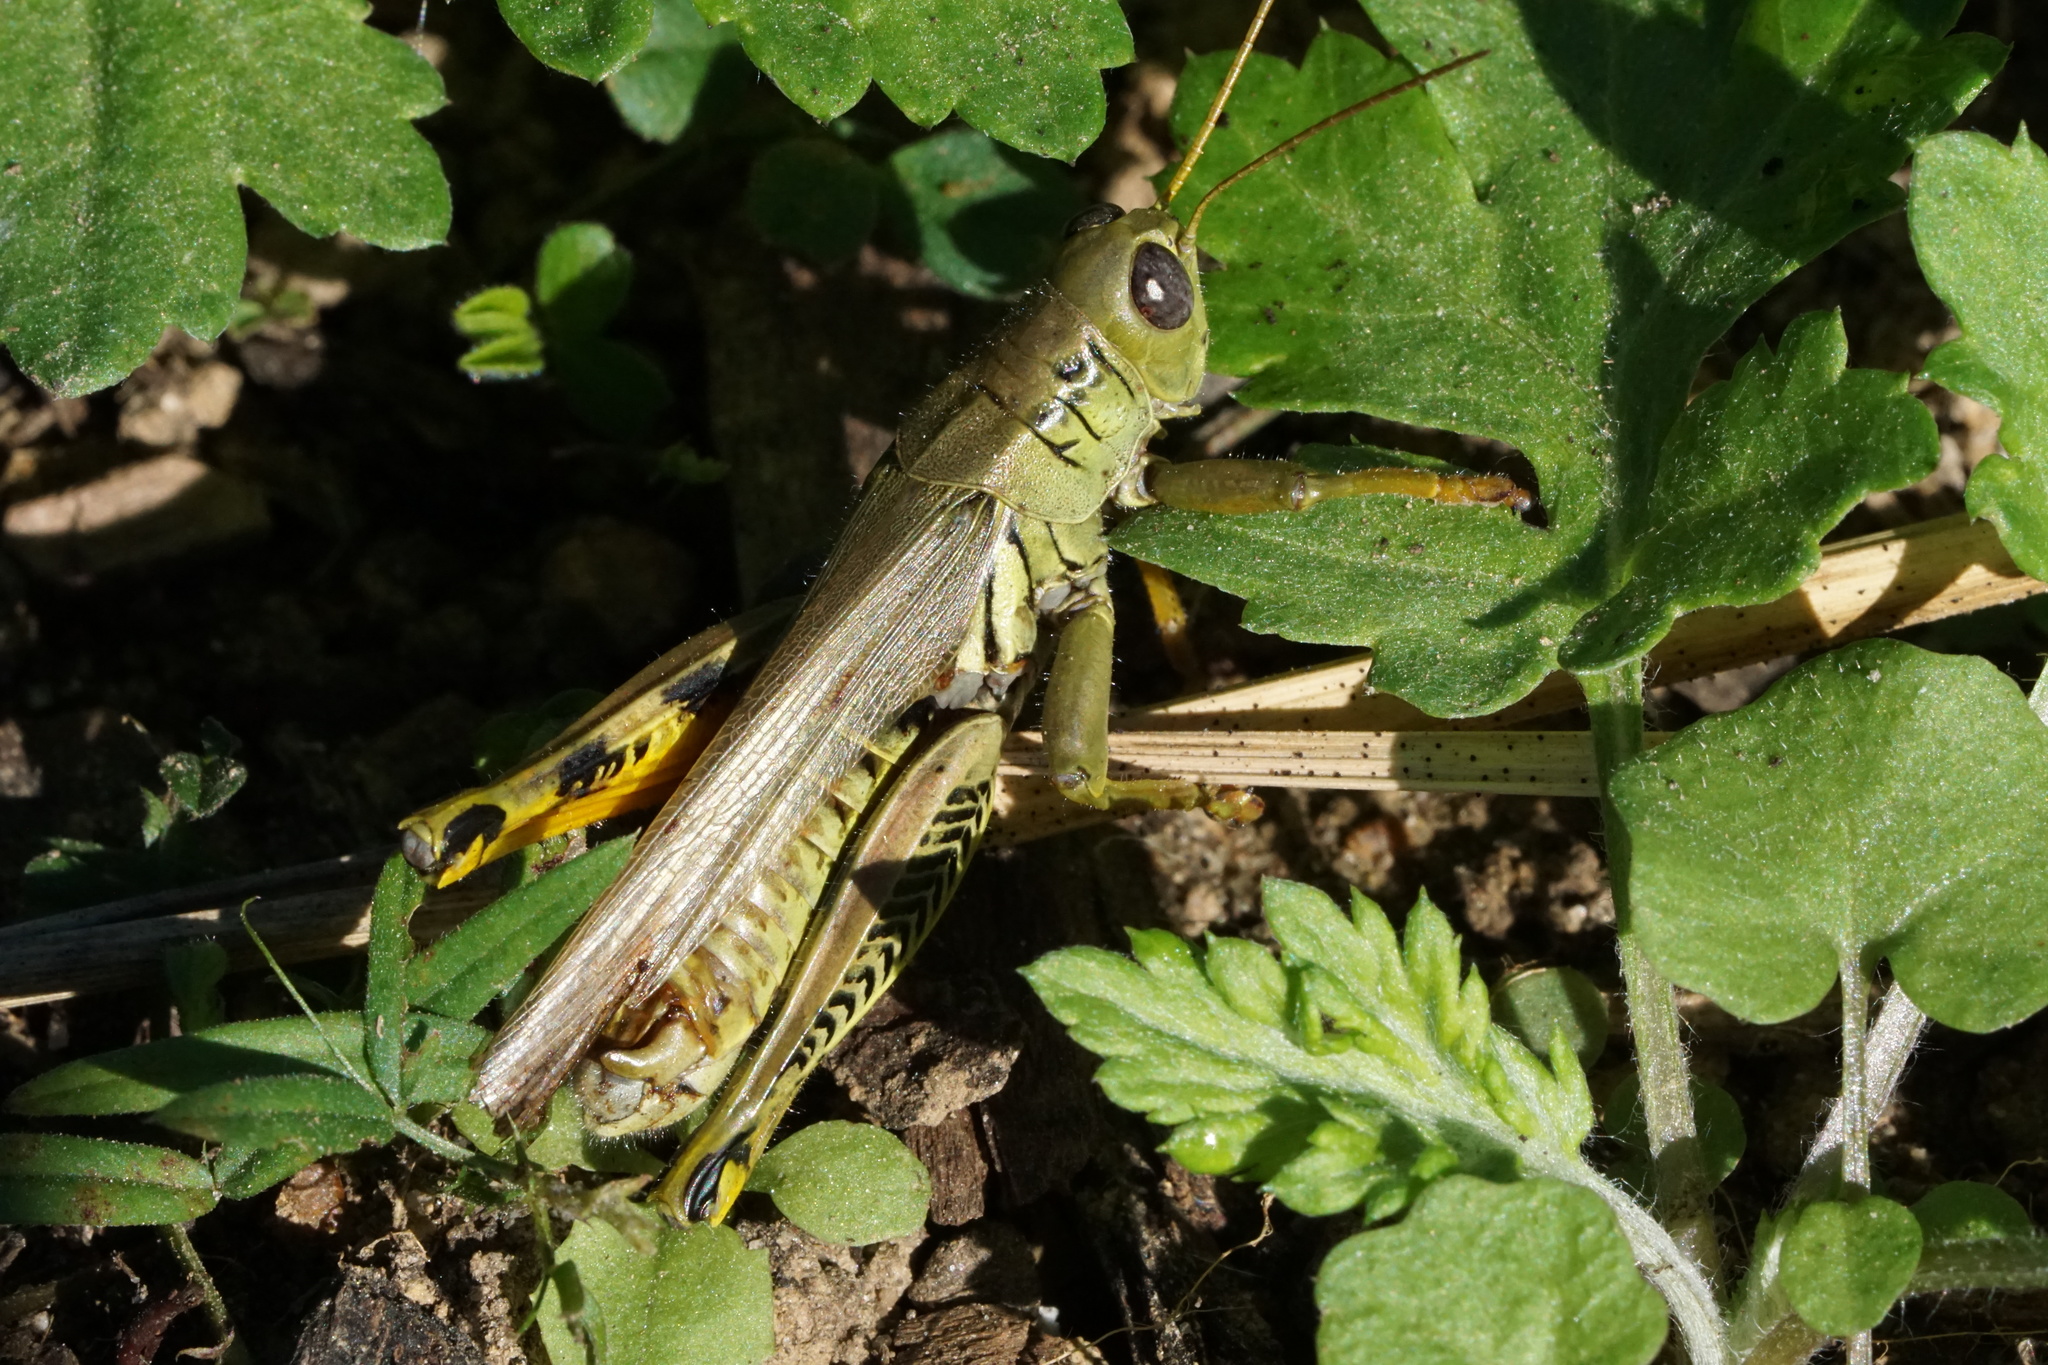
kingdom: Animalia
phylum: Arthropoda
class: Insecta
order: Orthoptera
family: Acrididae
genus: Melanoplus
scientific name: Melanoplus differentialis
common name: Differential grasshopper
